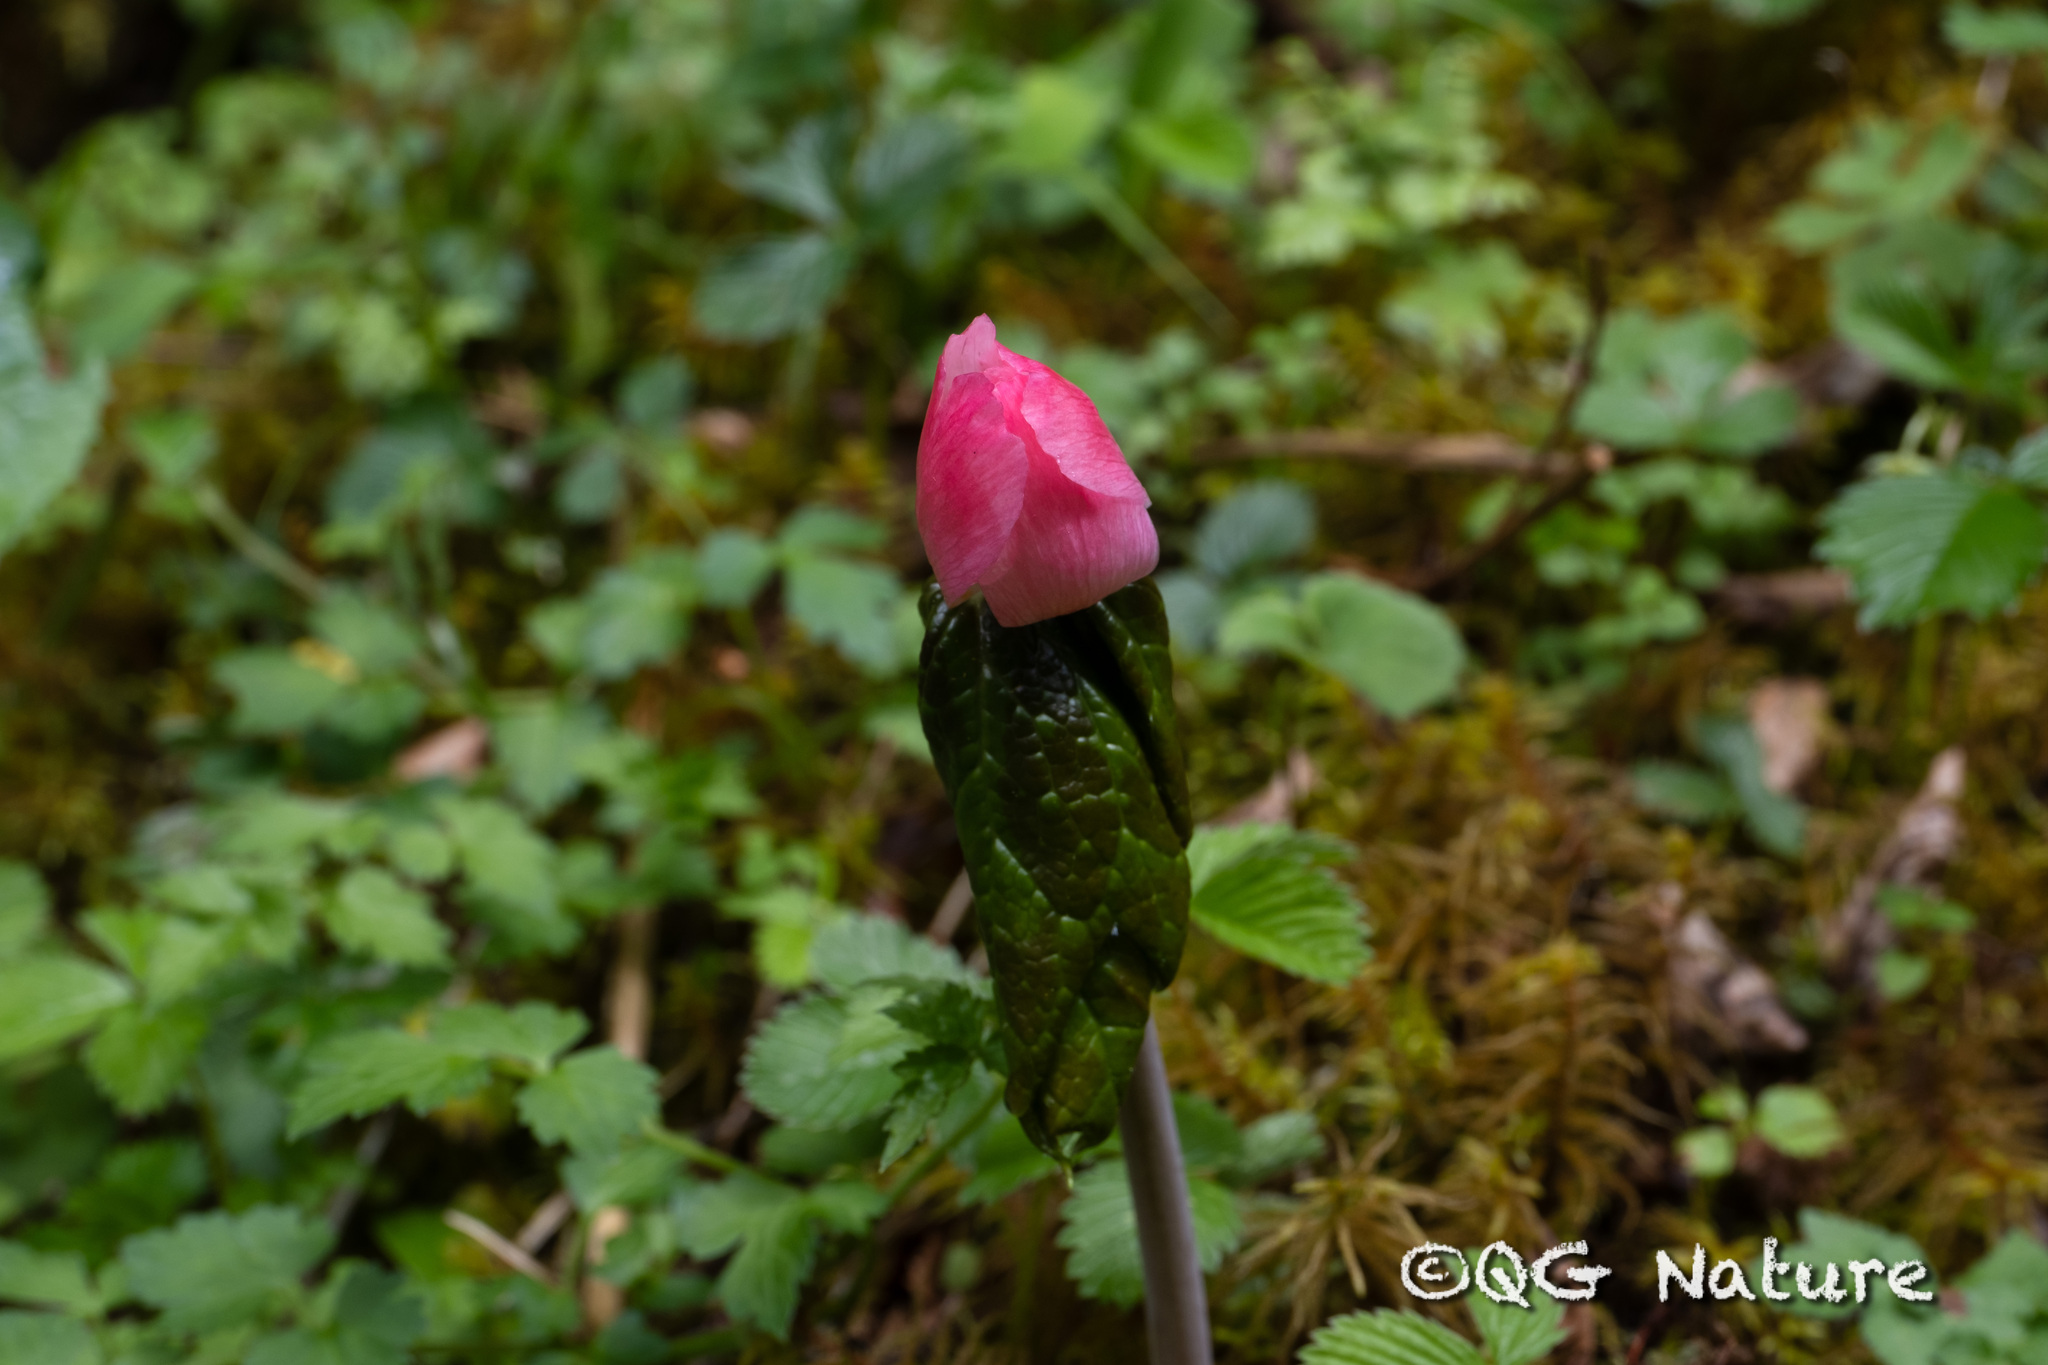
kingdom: Plantae
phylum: Tracheophyta
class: Magnoliopsida
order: Ranunculales
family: Berberidaceae
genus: Sinopodophyllum
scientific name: Sinopodophyllum hexandrum
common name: Himalayan may-apple
